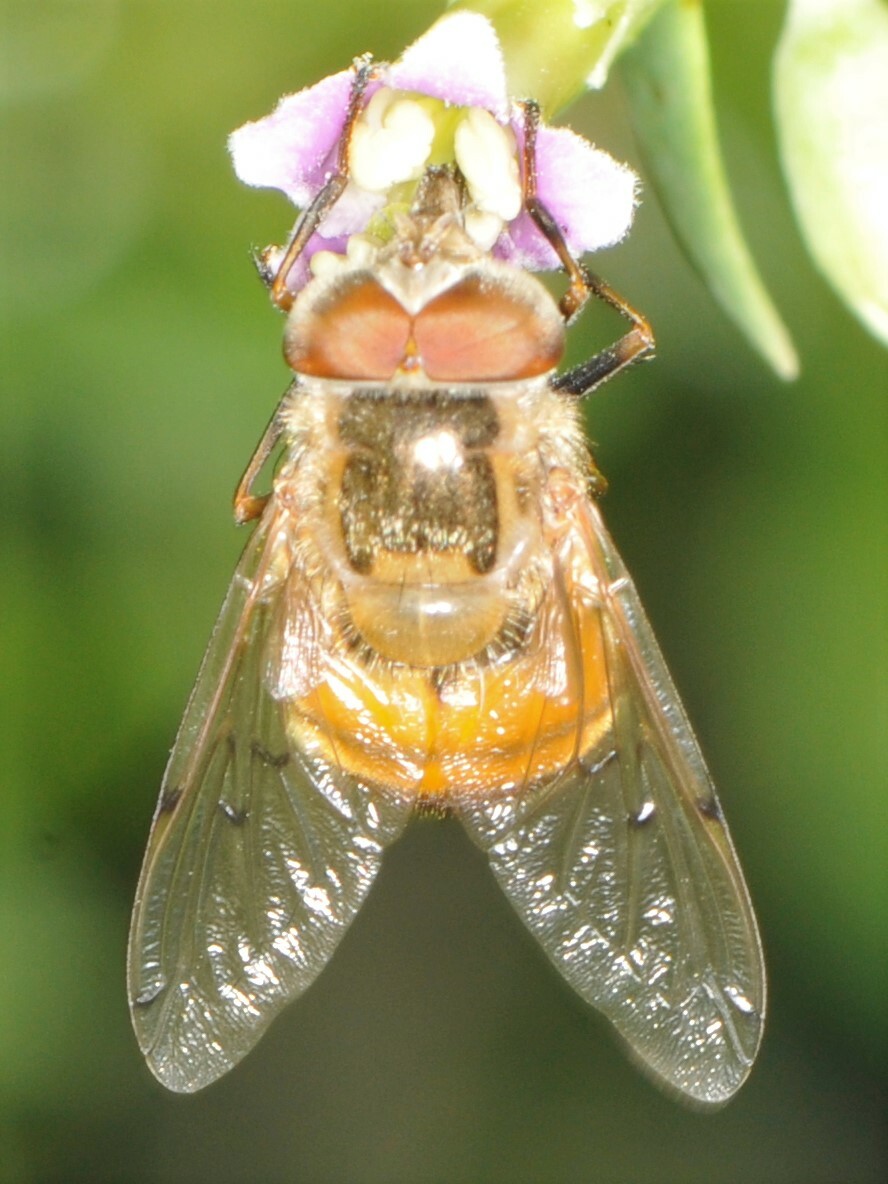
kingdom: Animalia
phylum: Arthropoda
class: Insecta
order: Diptera
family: Syrphidae
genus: Copestylum
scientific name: Copestylum haagii
